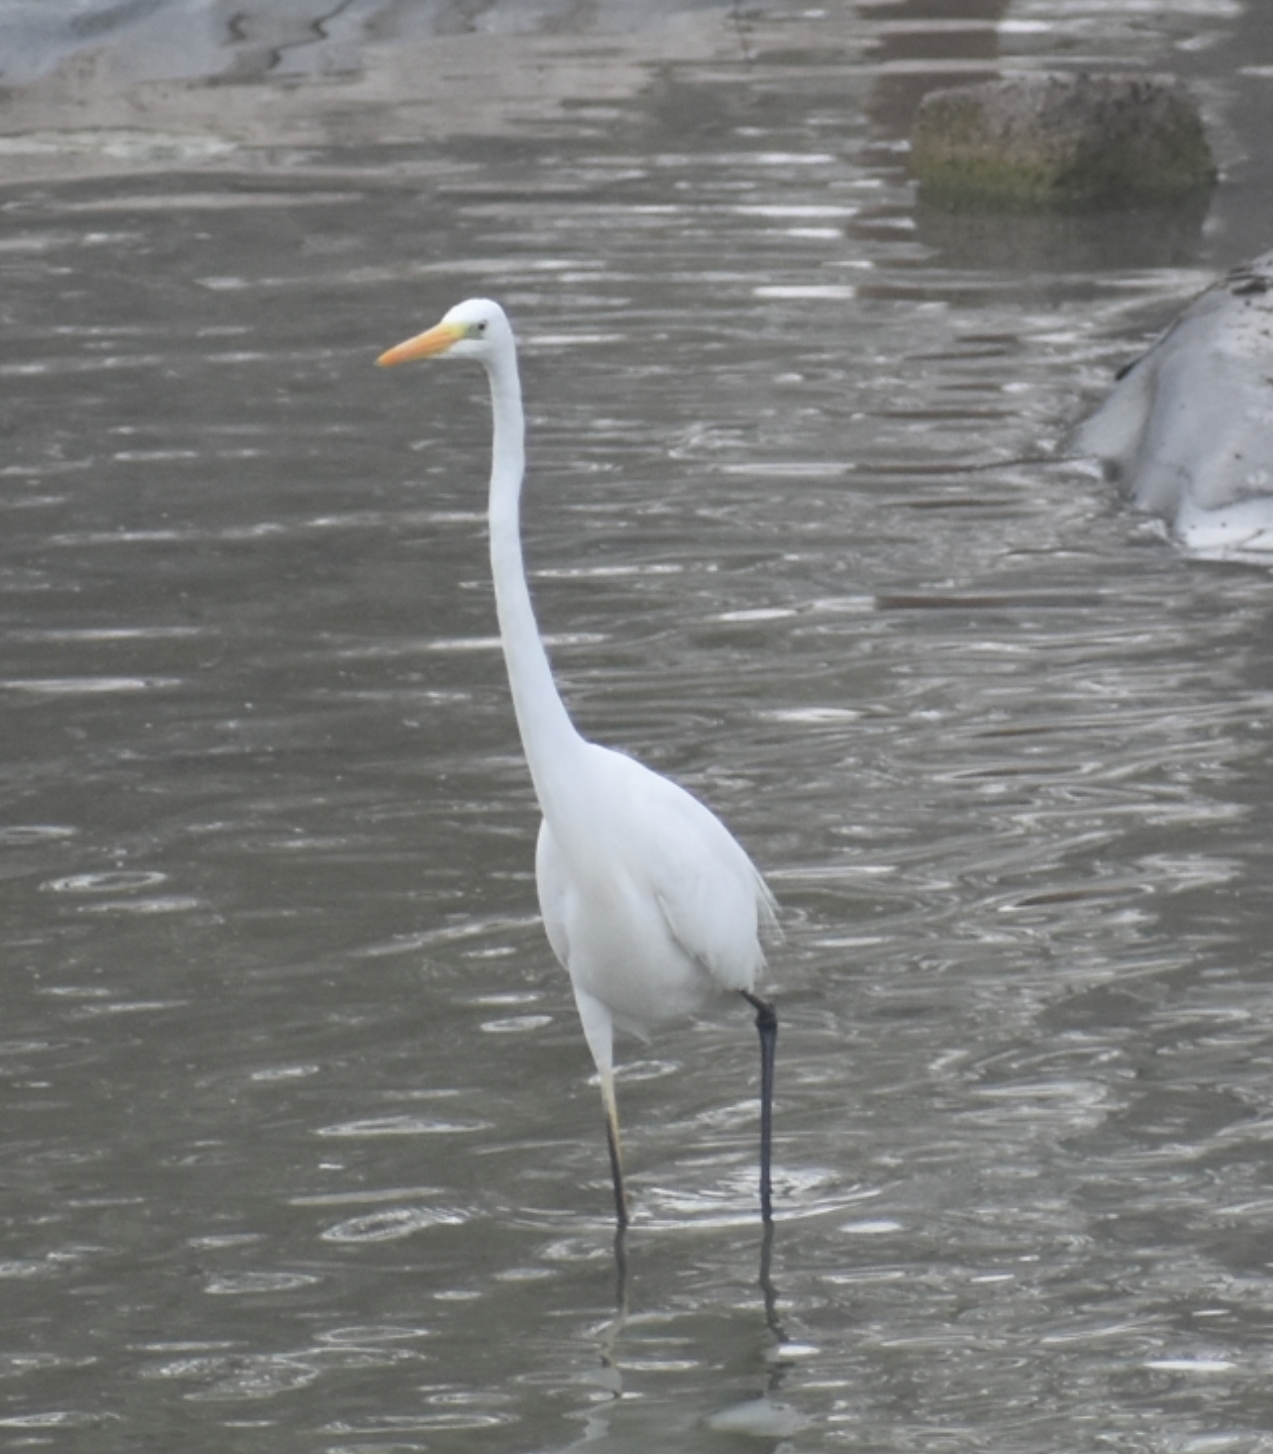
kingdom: Animalia
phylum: Chordata
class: Aves
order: Pelecaniformes
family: Ardeidae
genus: Ardea
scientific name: Ardea alba
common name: Great egret
